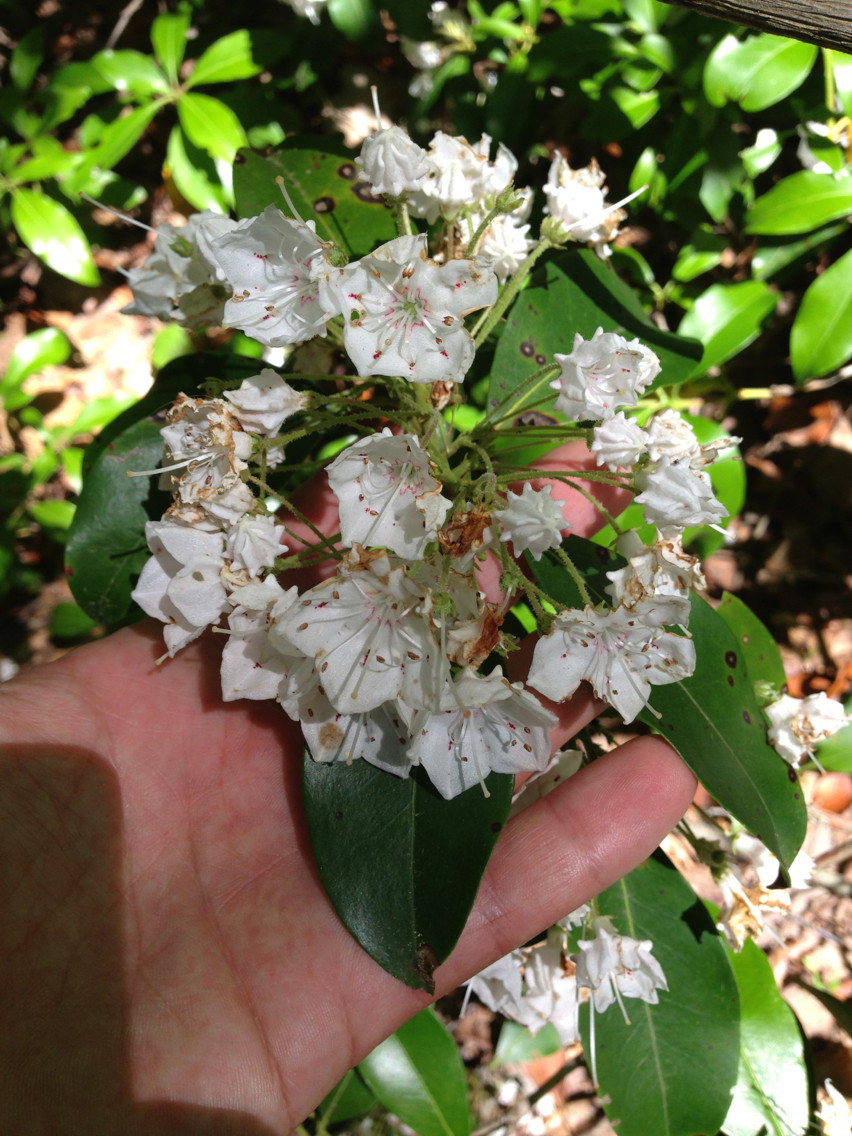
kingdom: Plantae
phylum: Tracheophyta
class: Magnoliopsida
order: Ericales
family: Ericaceae
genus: Kalmia
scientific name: Kalmia latifolia
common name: Mountain-laurel
